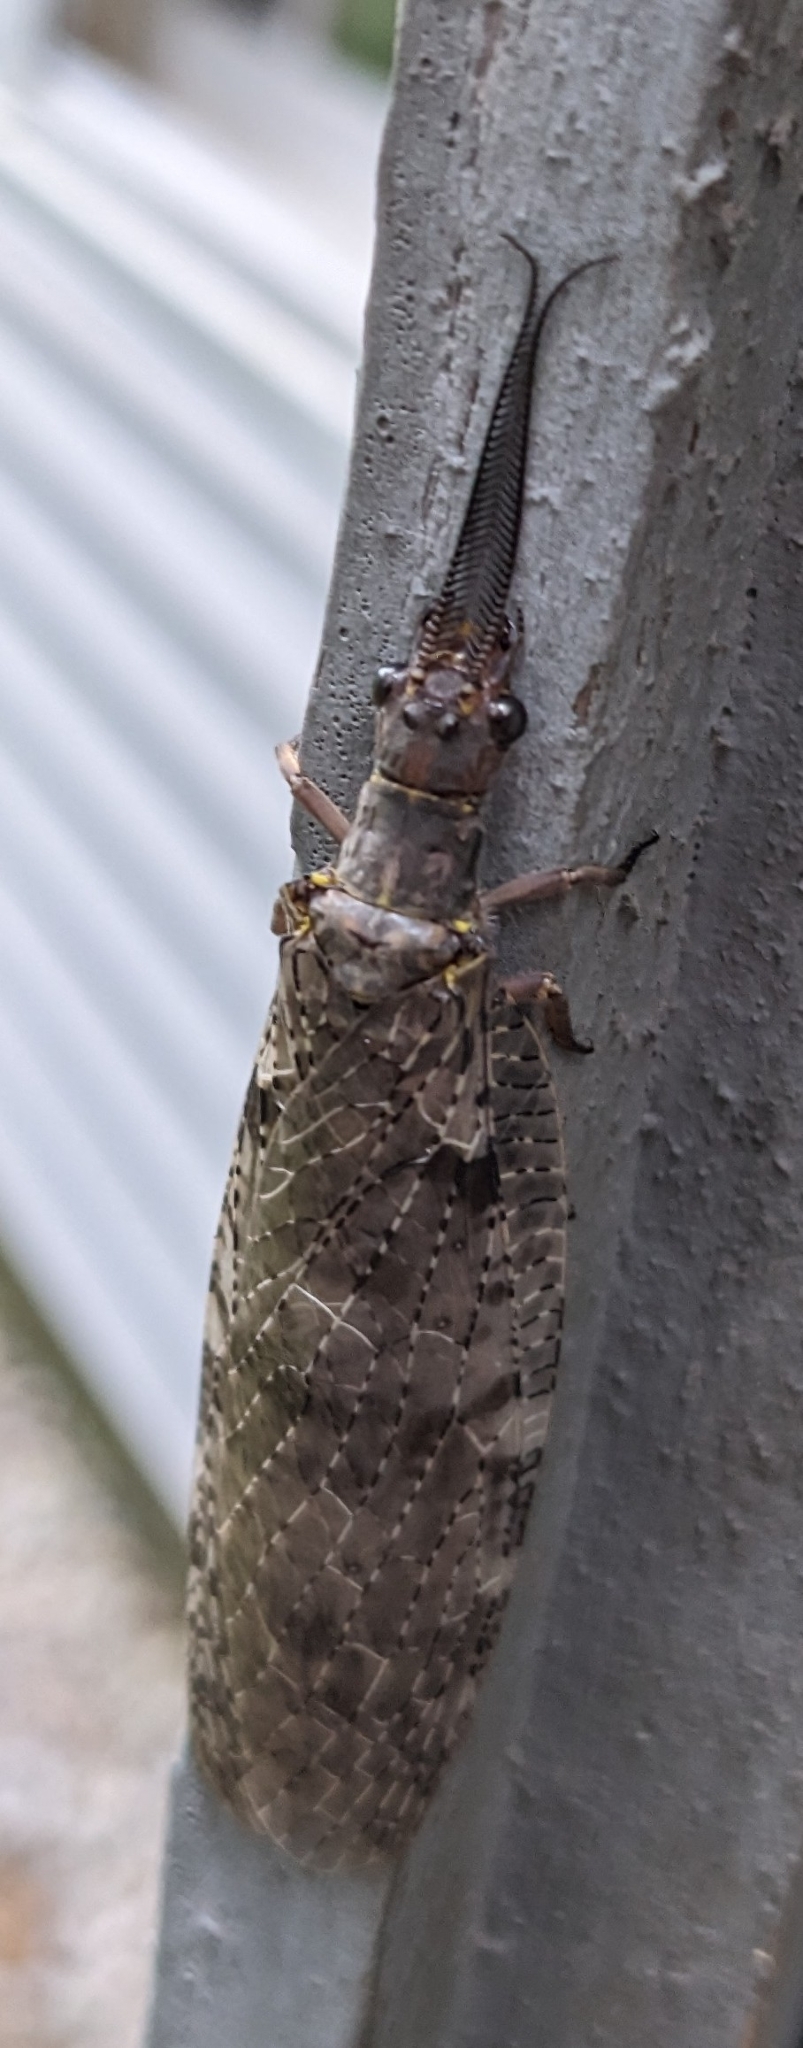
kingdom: Animalia
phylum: Arthropoda
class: Insecta
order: Megaloptera
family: Corydalidae
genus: Chauliodes
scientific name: Chauliodes pectinicornis
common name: Summer fishfly
